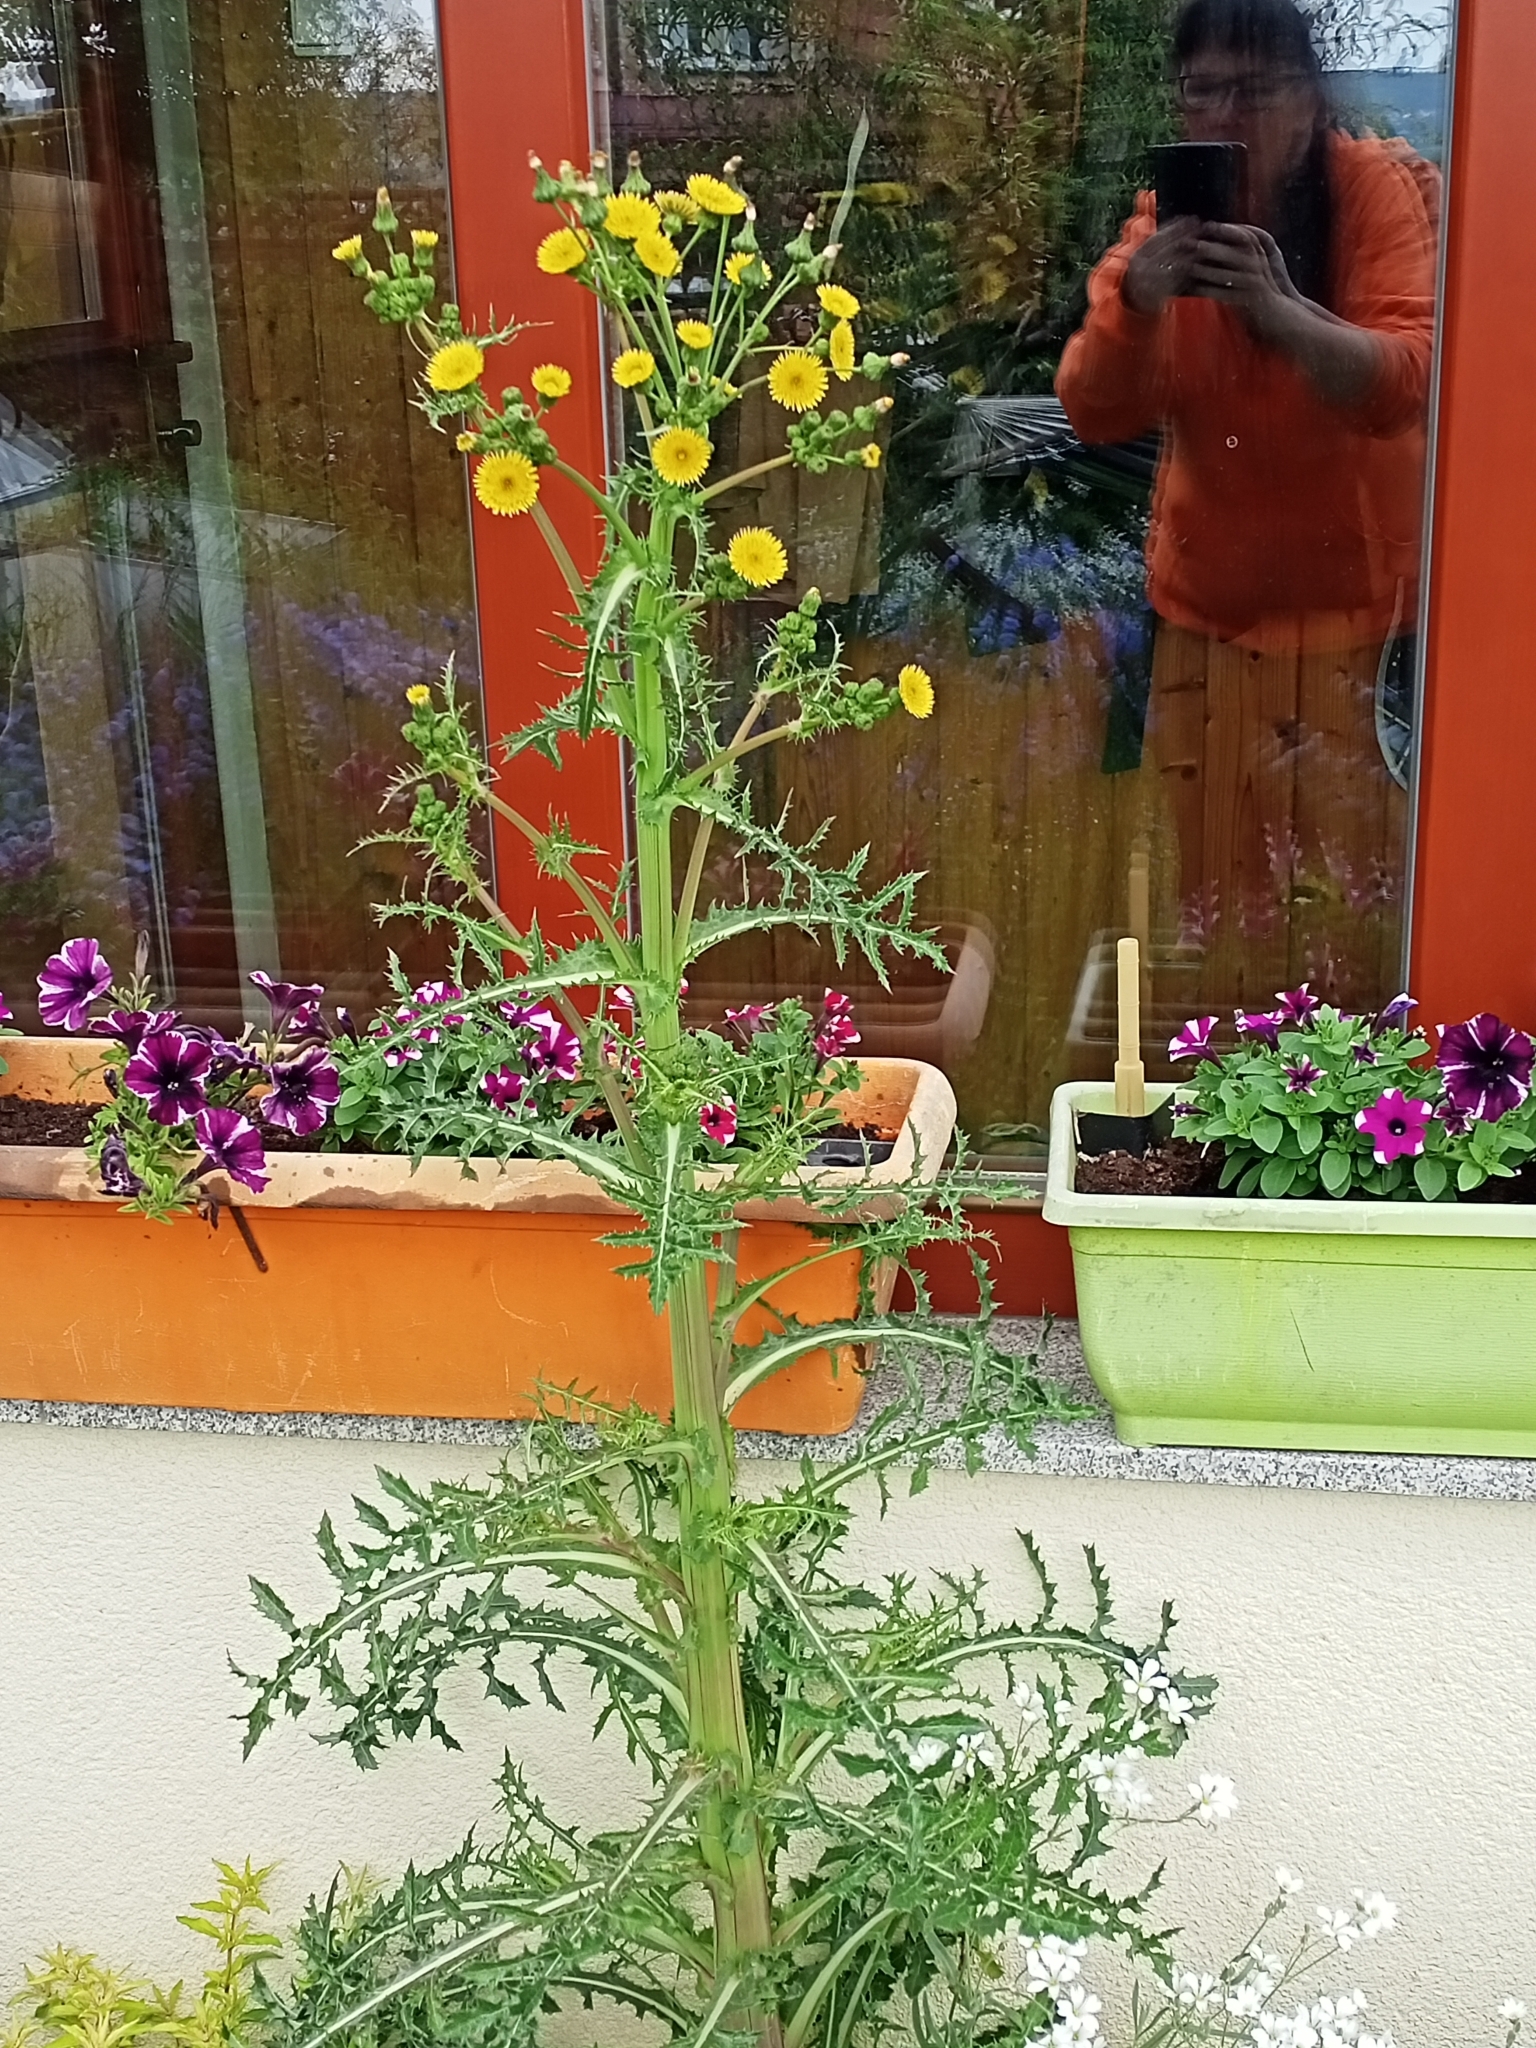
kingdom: Plantae
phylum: Tracheophyta
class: Magnoliopsida
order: Asterales
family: Asteraceae
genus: Sonchus
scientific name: Sonchus asper
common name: Prickly sow-thistle
